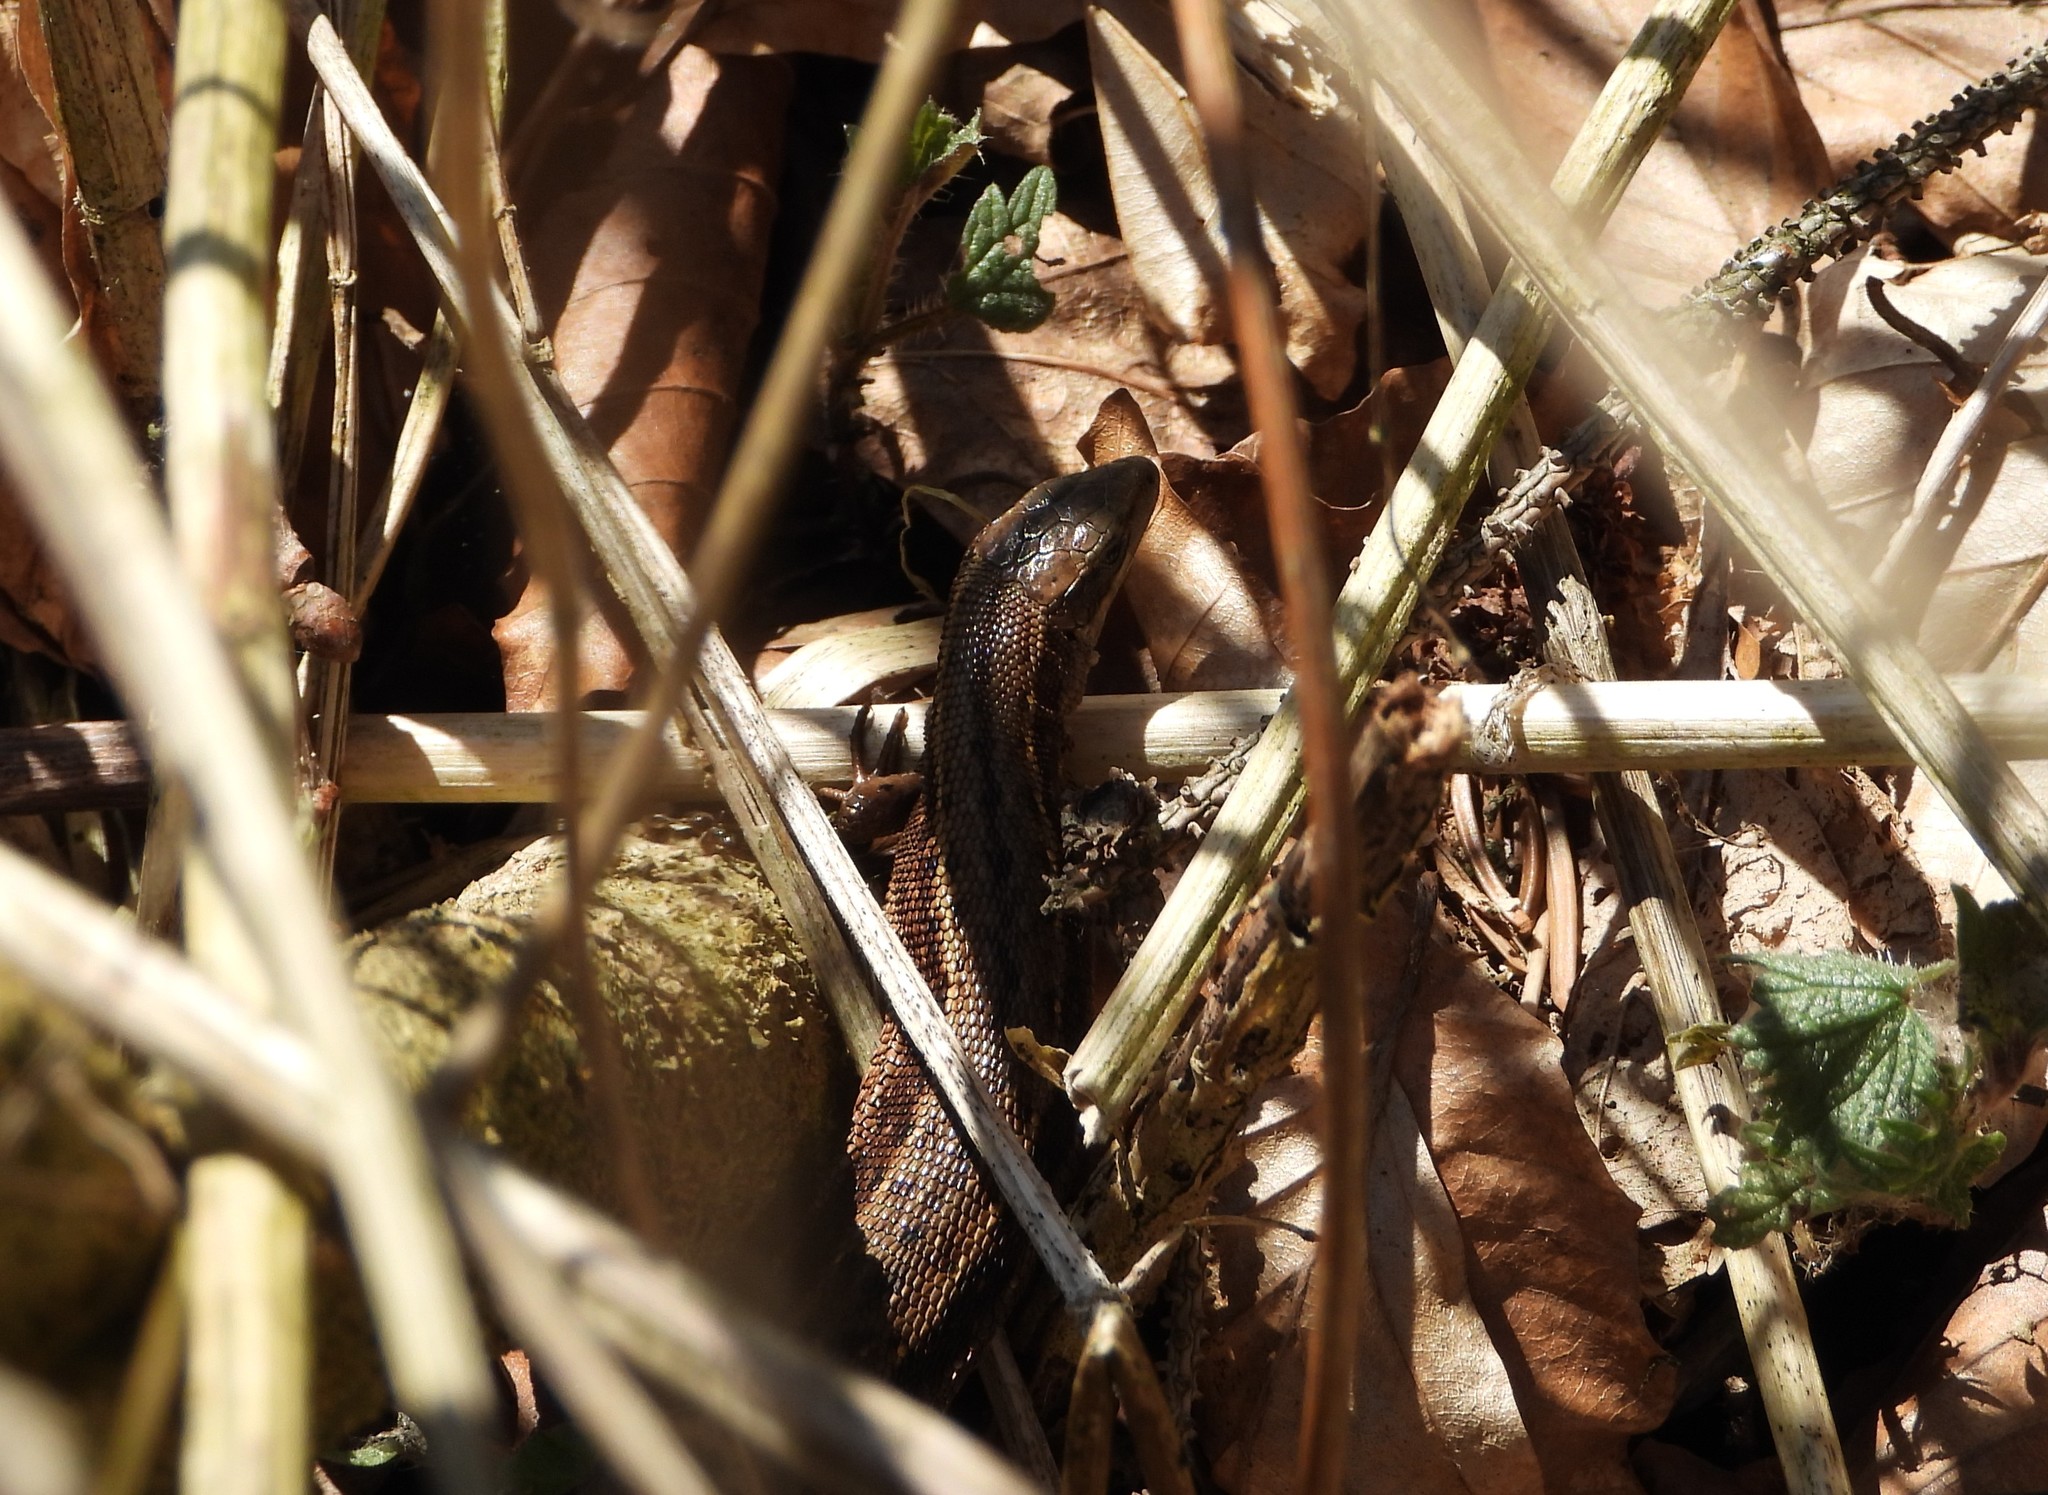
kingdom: Animalia
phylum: Chordata
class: Squamata
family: Lacertidae
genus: Zootoca
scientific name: Zootoca vivipara
